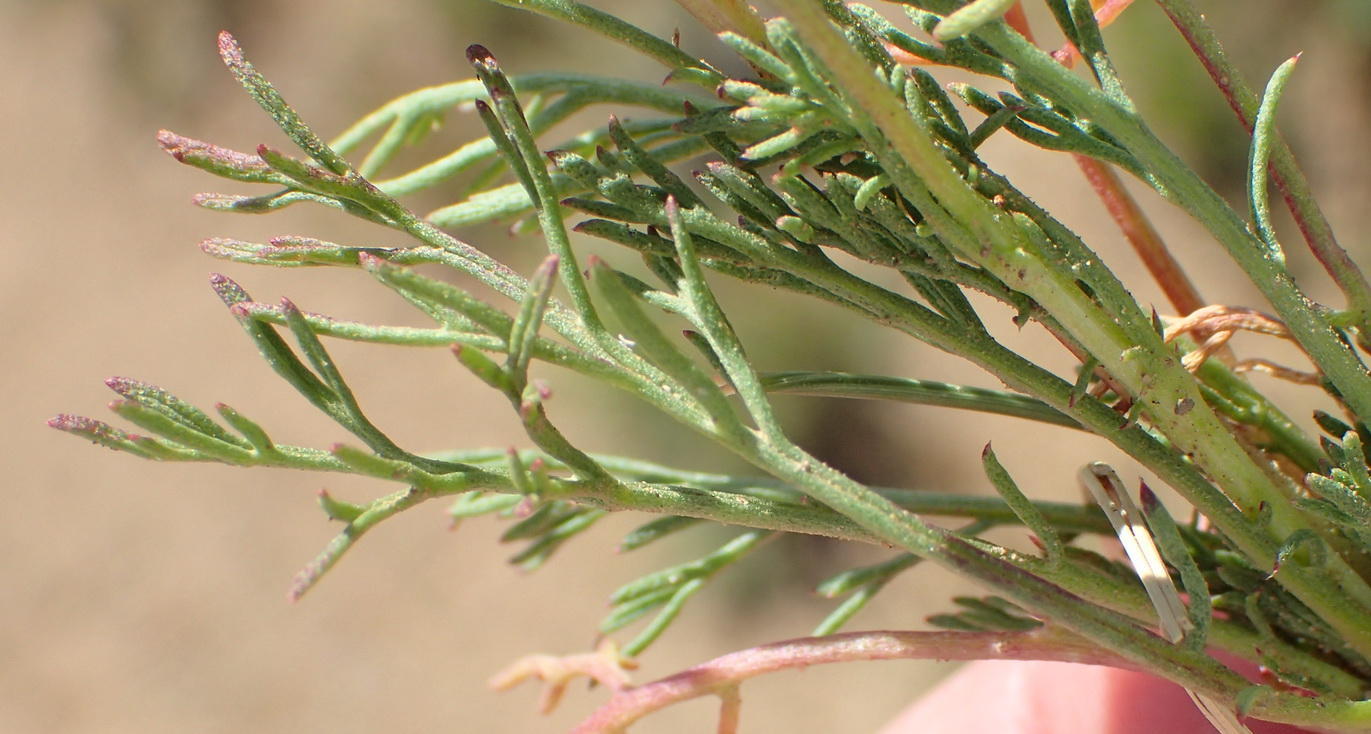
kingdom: Plantae
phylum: Tracheophyta
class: Magnoliopsida
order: Asterales
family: Asteraceae
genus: Ursinia
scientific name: Ursinia nana
